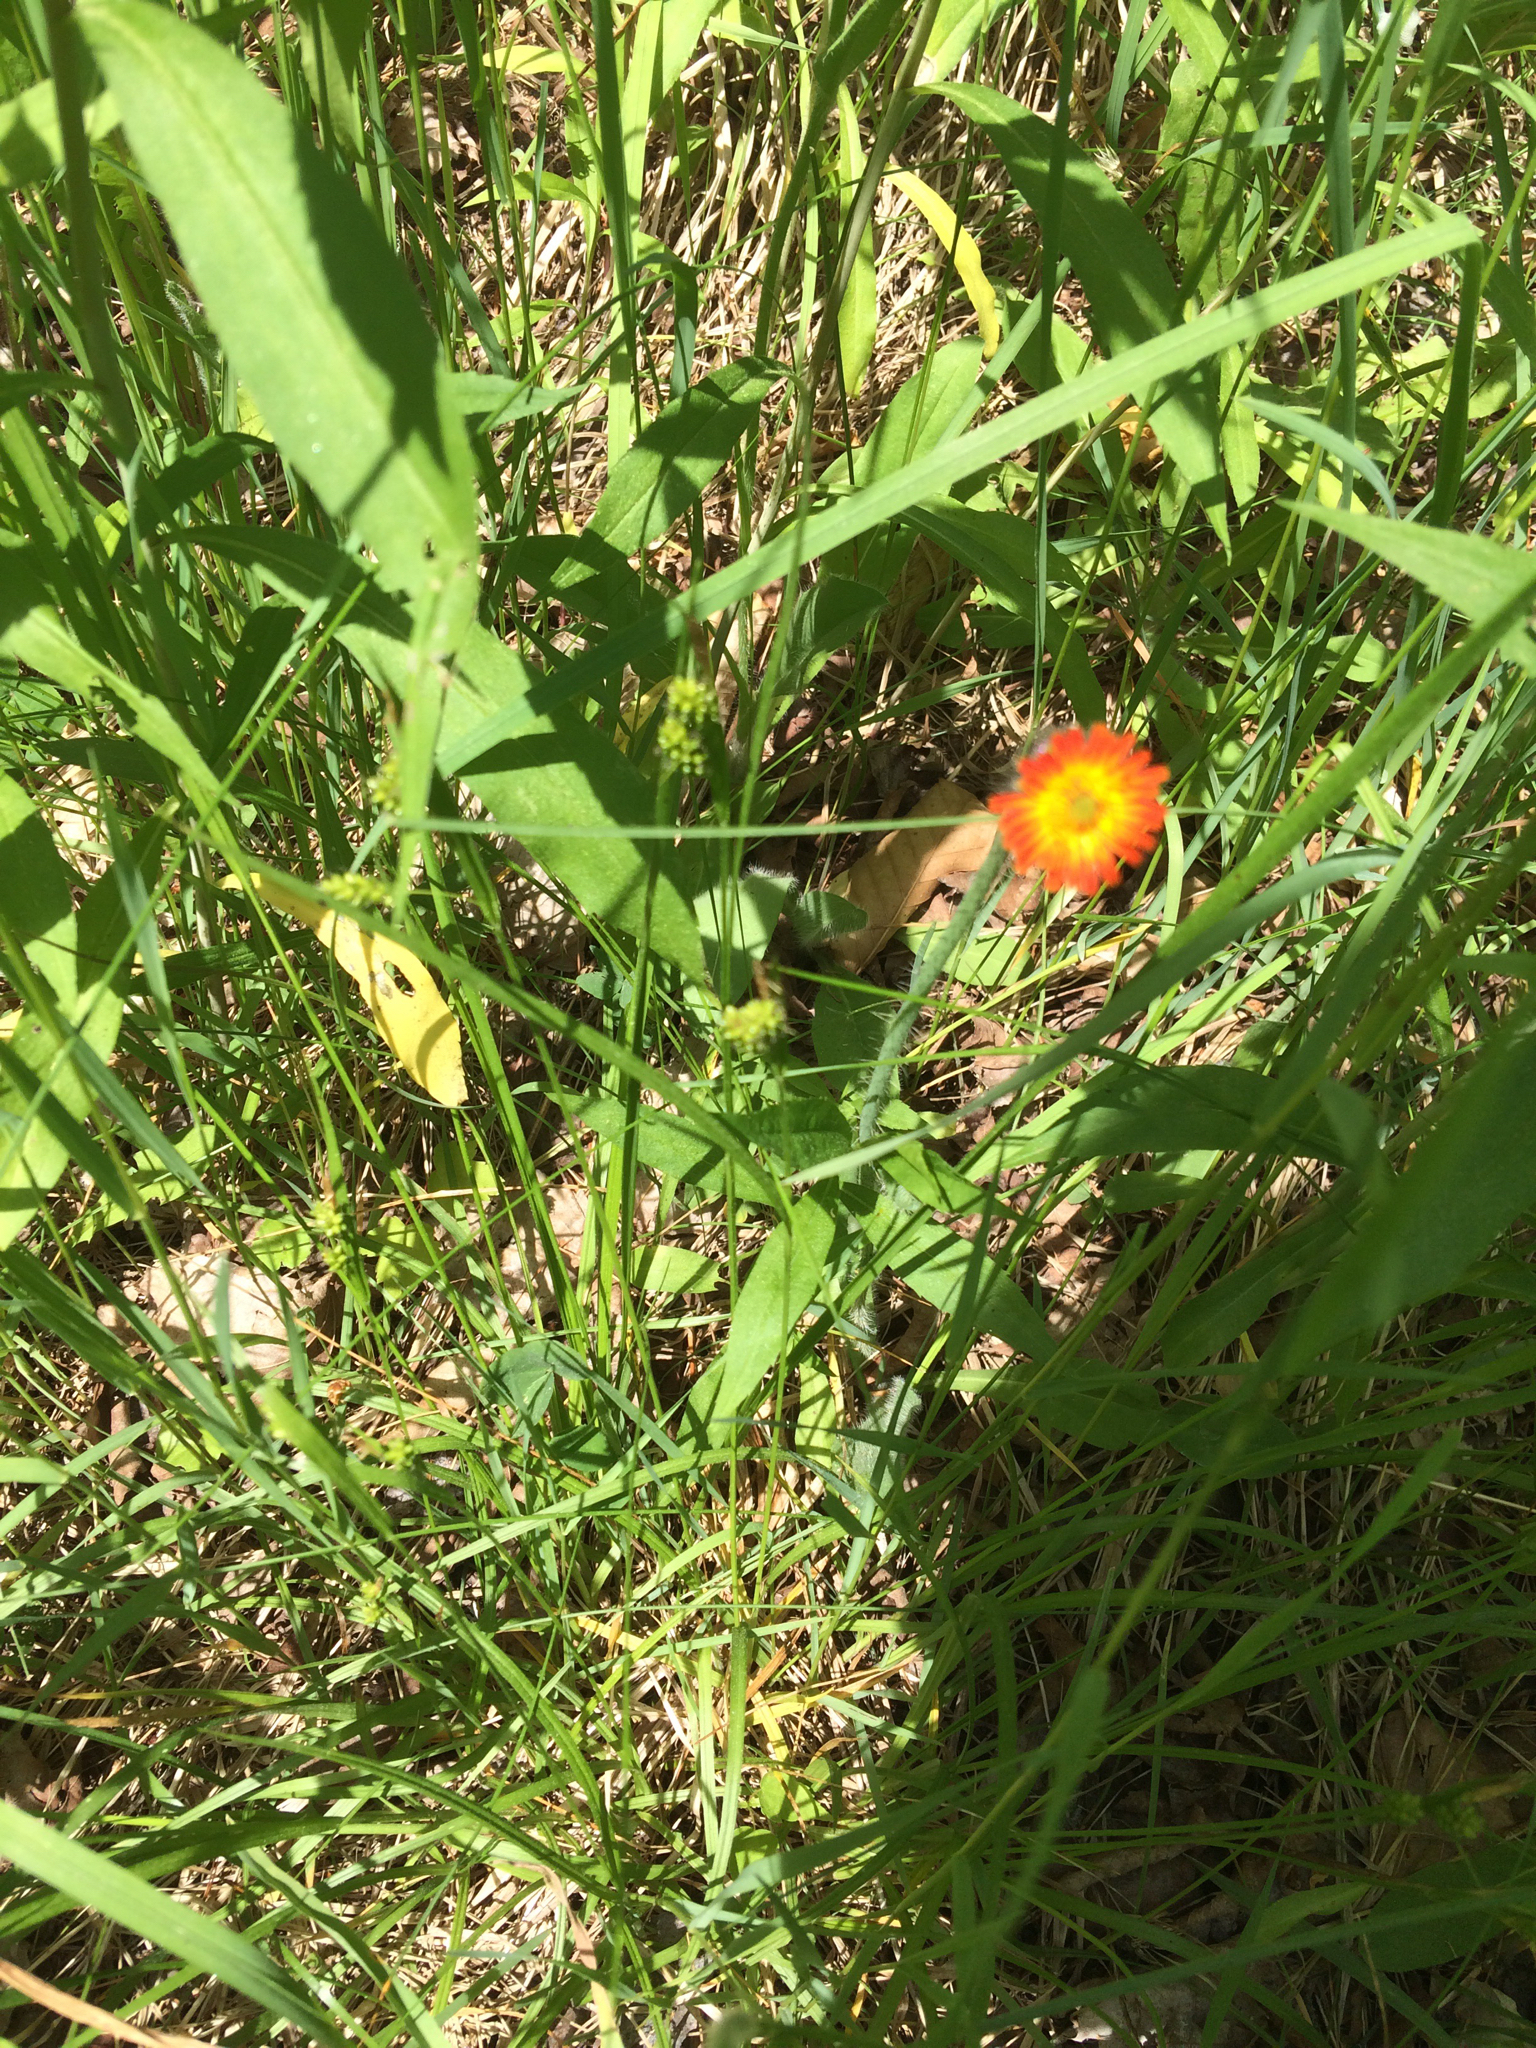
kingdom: Plantae
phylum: Tracheophyta
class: Magnoliopsida
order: Asterales
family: Asteraceae
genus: Pilosella
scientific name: Pilosella aurantiaca
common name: Fox-and-cubs
